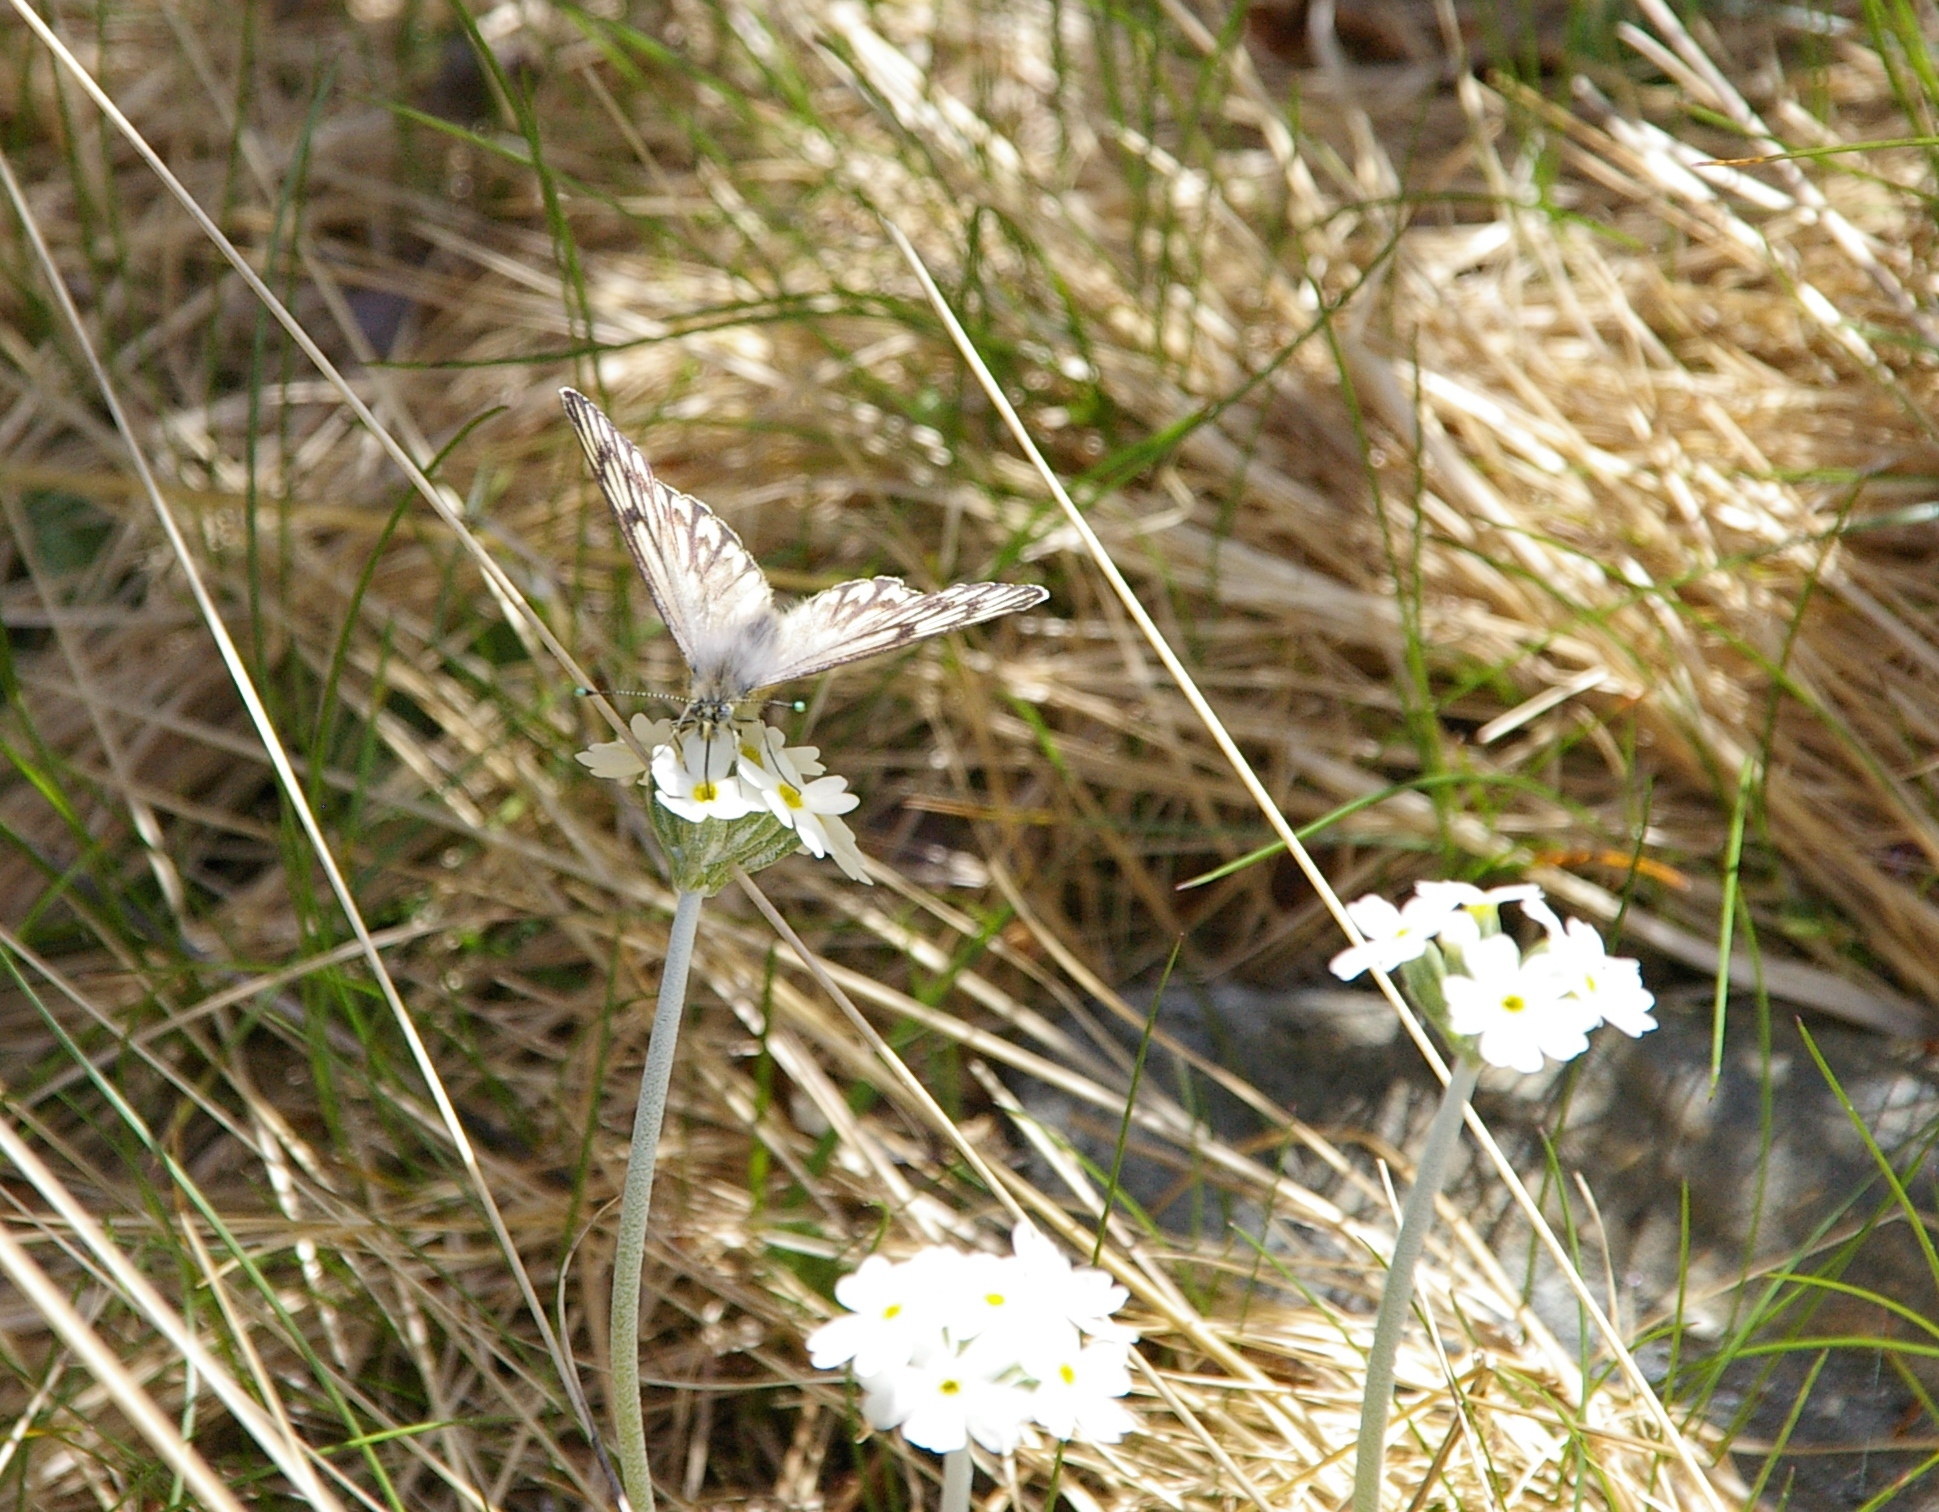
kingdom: Animalia
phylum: Arthropoda
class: Insecta
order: Lepidoptera
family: Pieridae
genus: Tatochila
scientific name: Tatochila theodice
